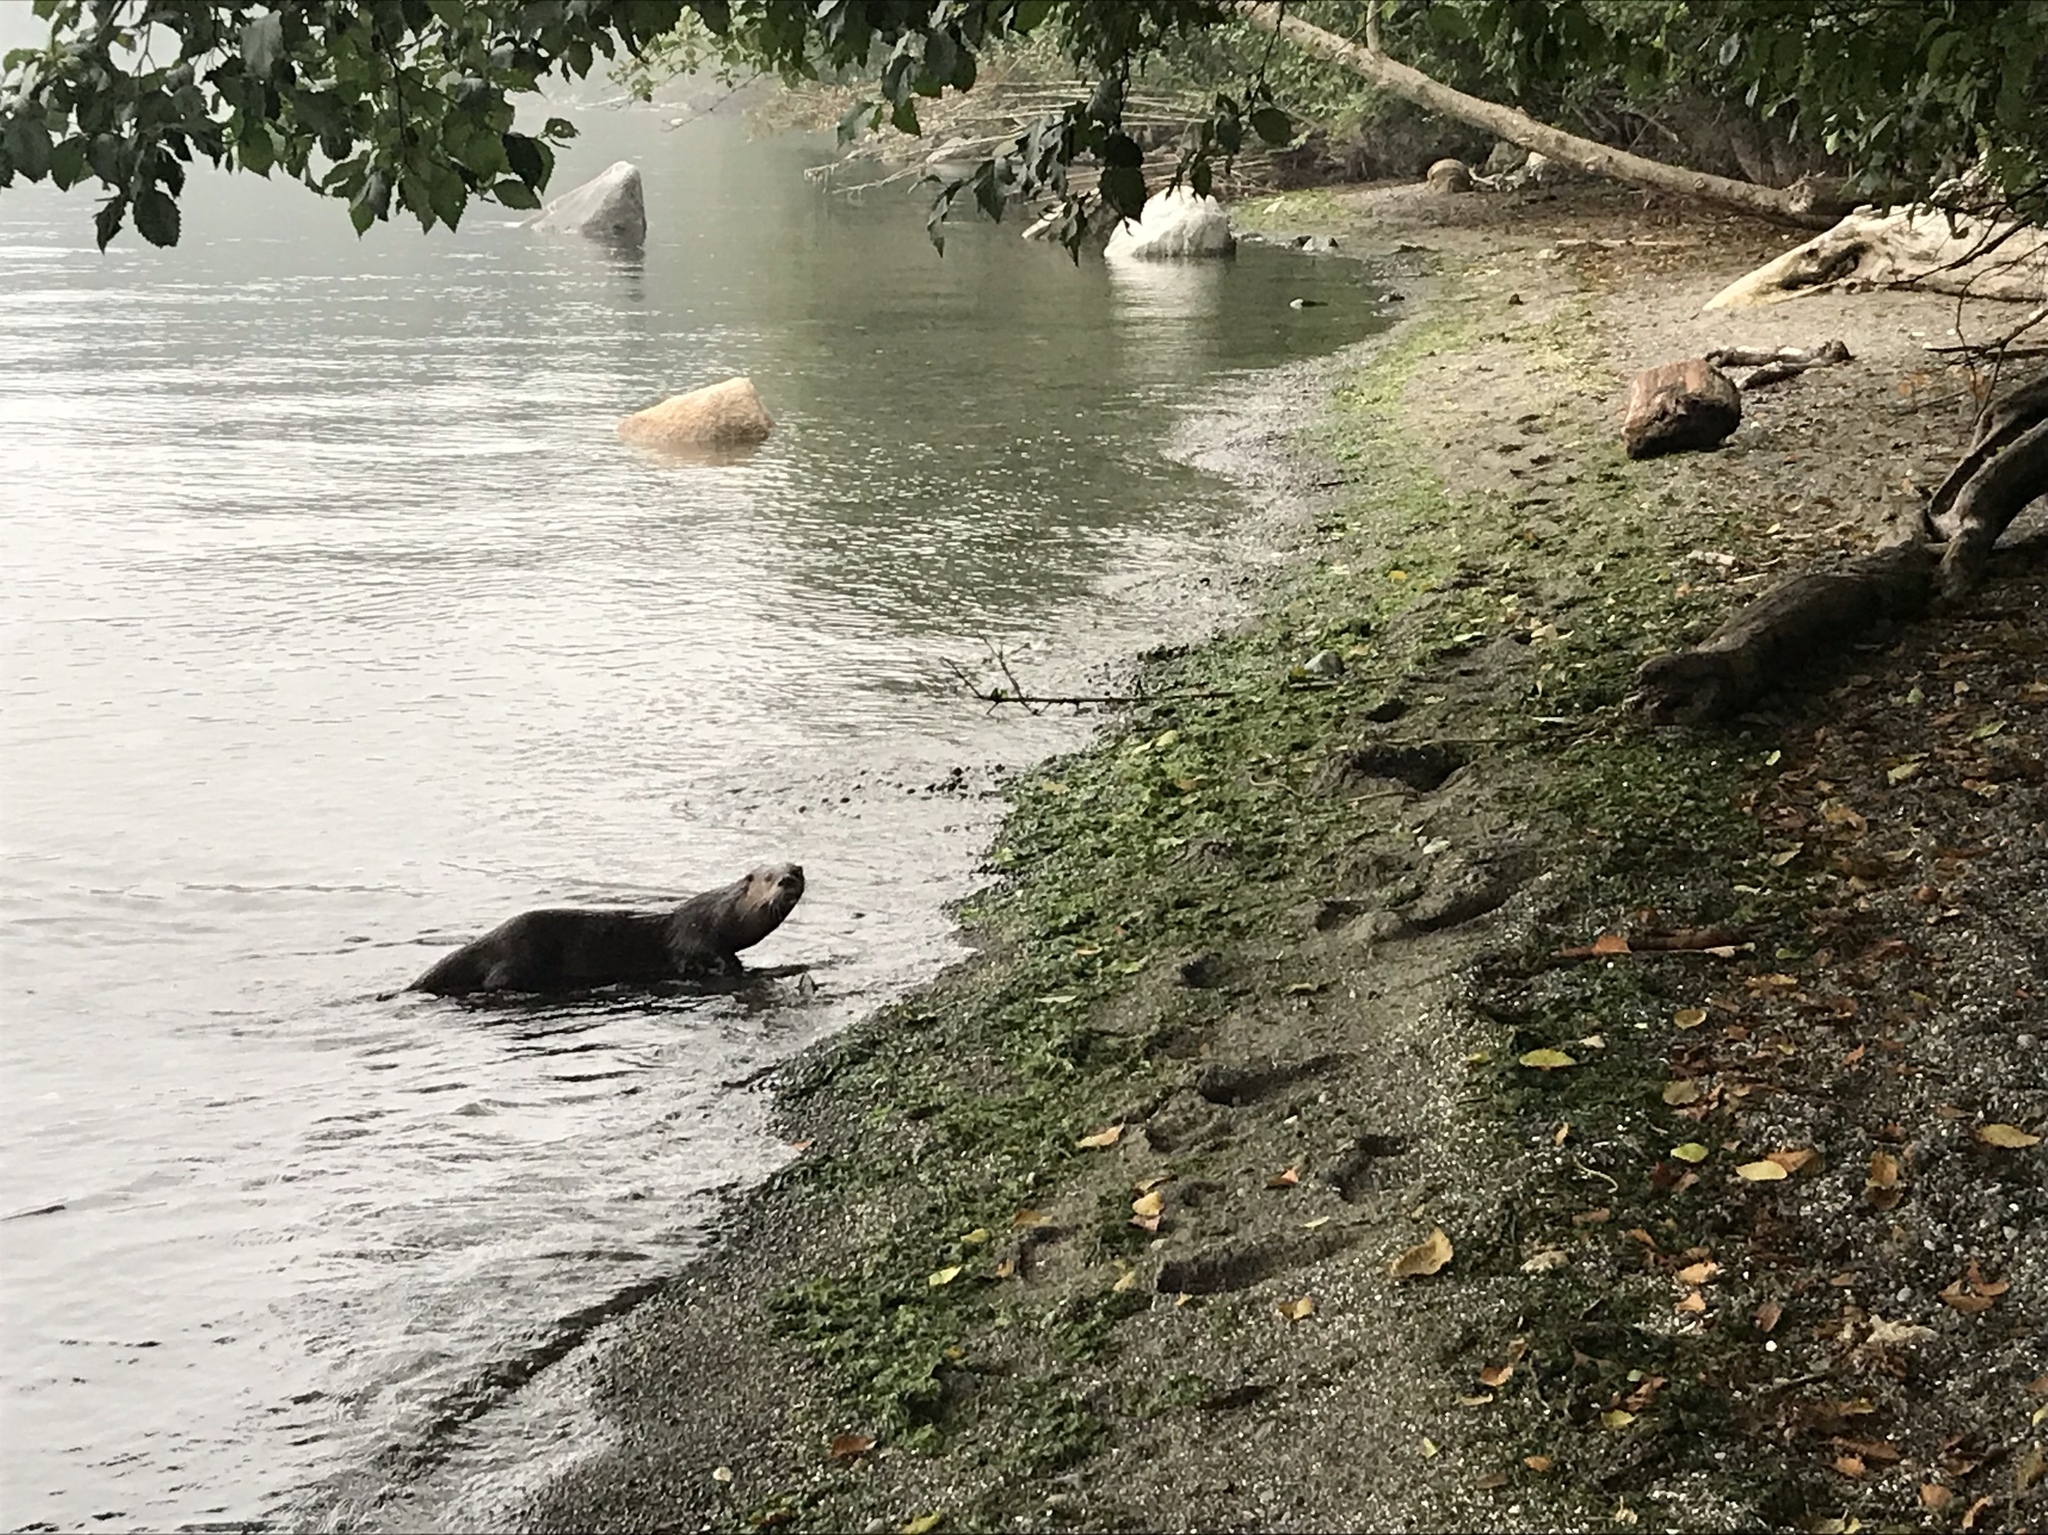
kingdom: Animalia
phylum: Chordata
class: Mammalia
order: Carnivora
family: Mustelidae
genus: Lontra
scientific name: Lontra canadensis
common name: North american river otter
